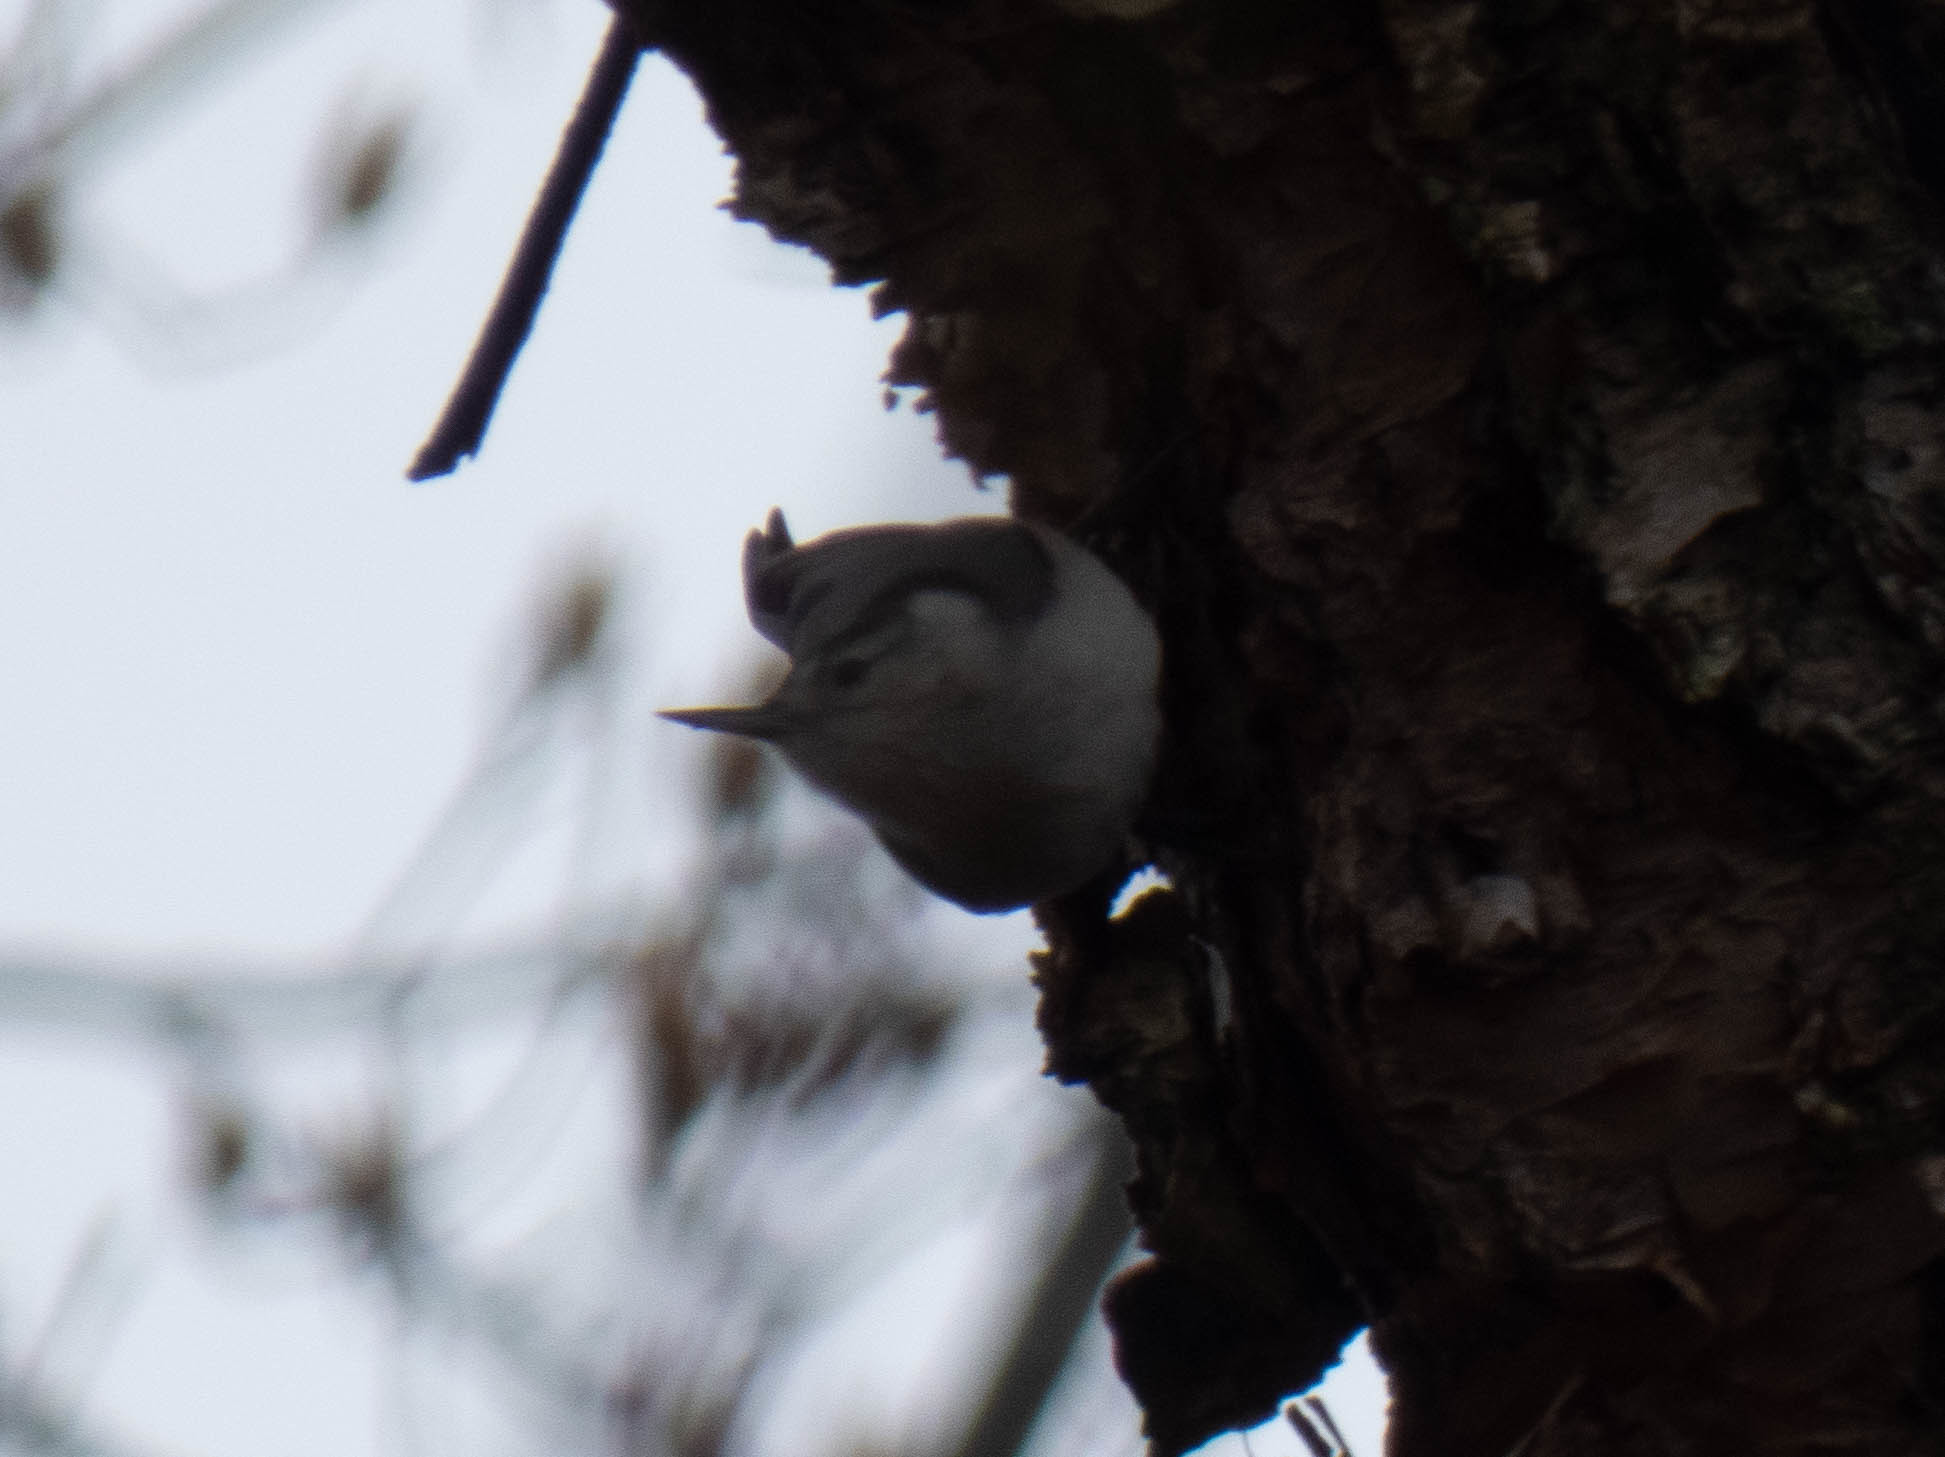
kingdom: Animalia
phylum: Chordata
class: Aves
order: Passeriformes
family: Sittidae
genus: Sitta
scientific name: Sitta carolinensis
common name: White-breasted nuthatch
